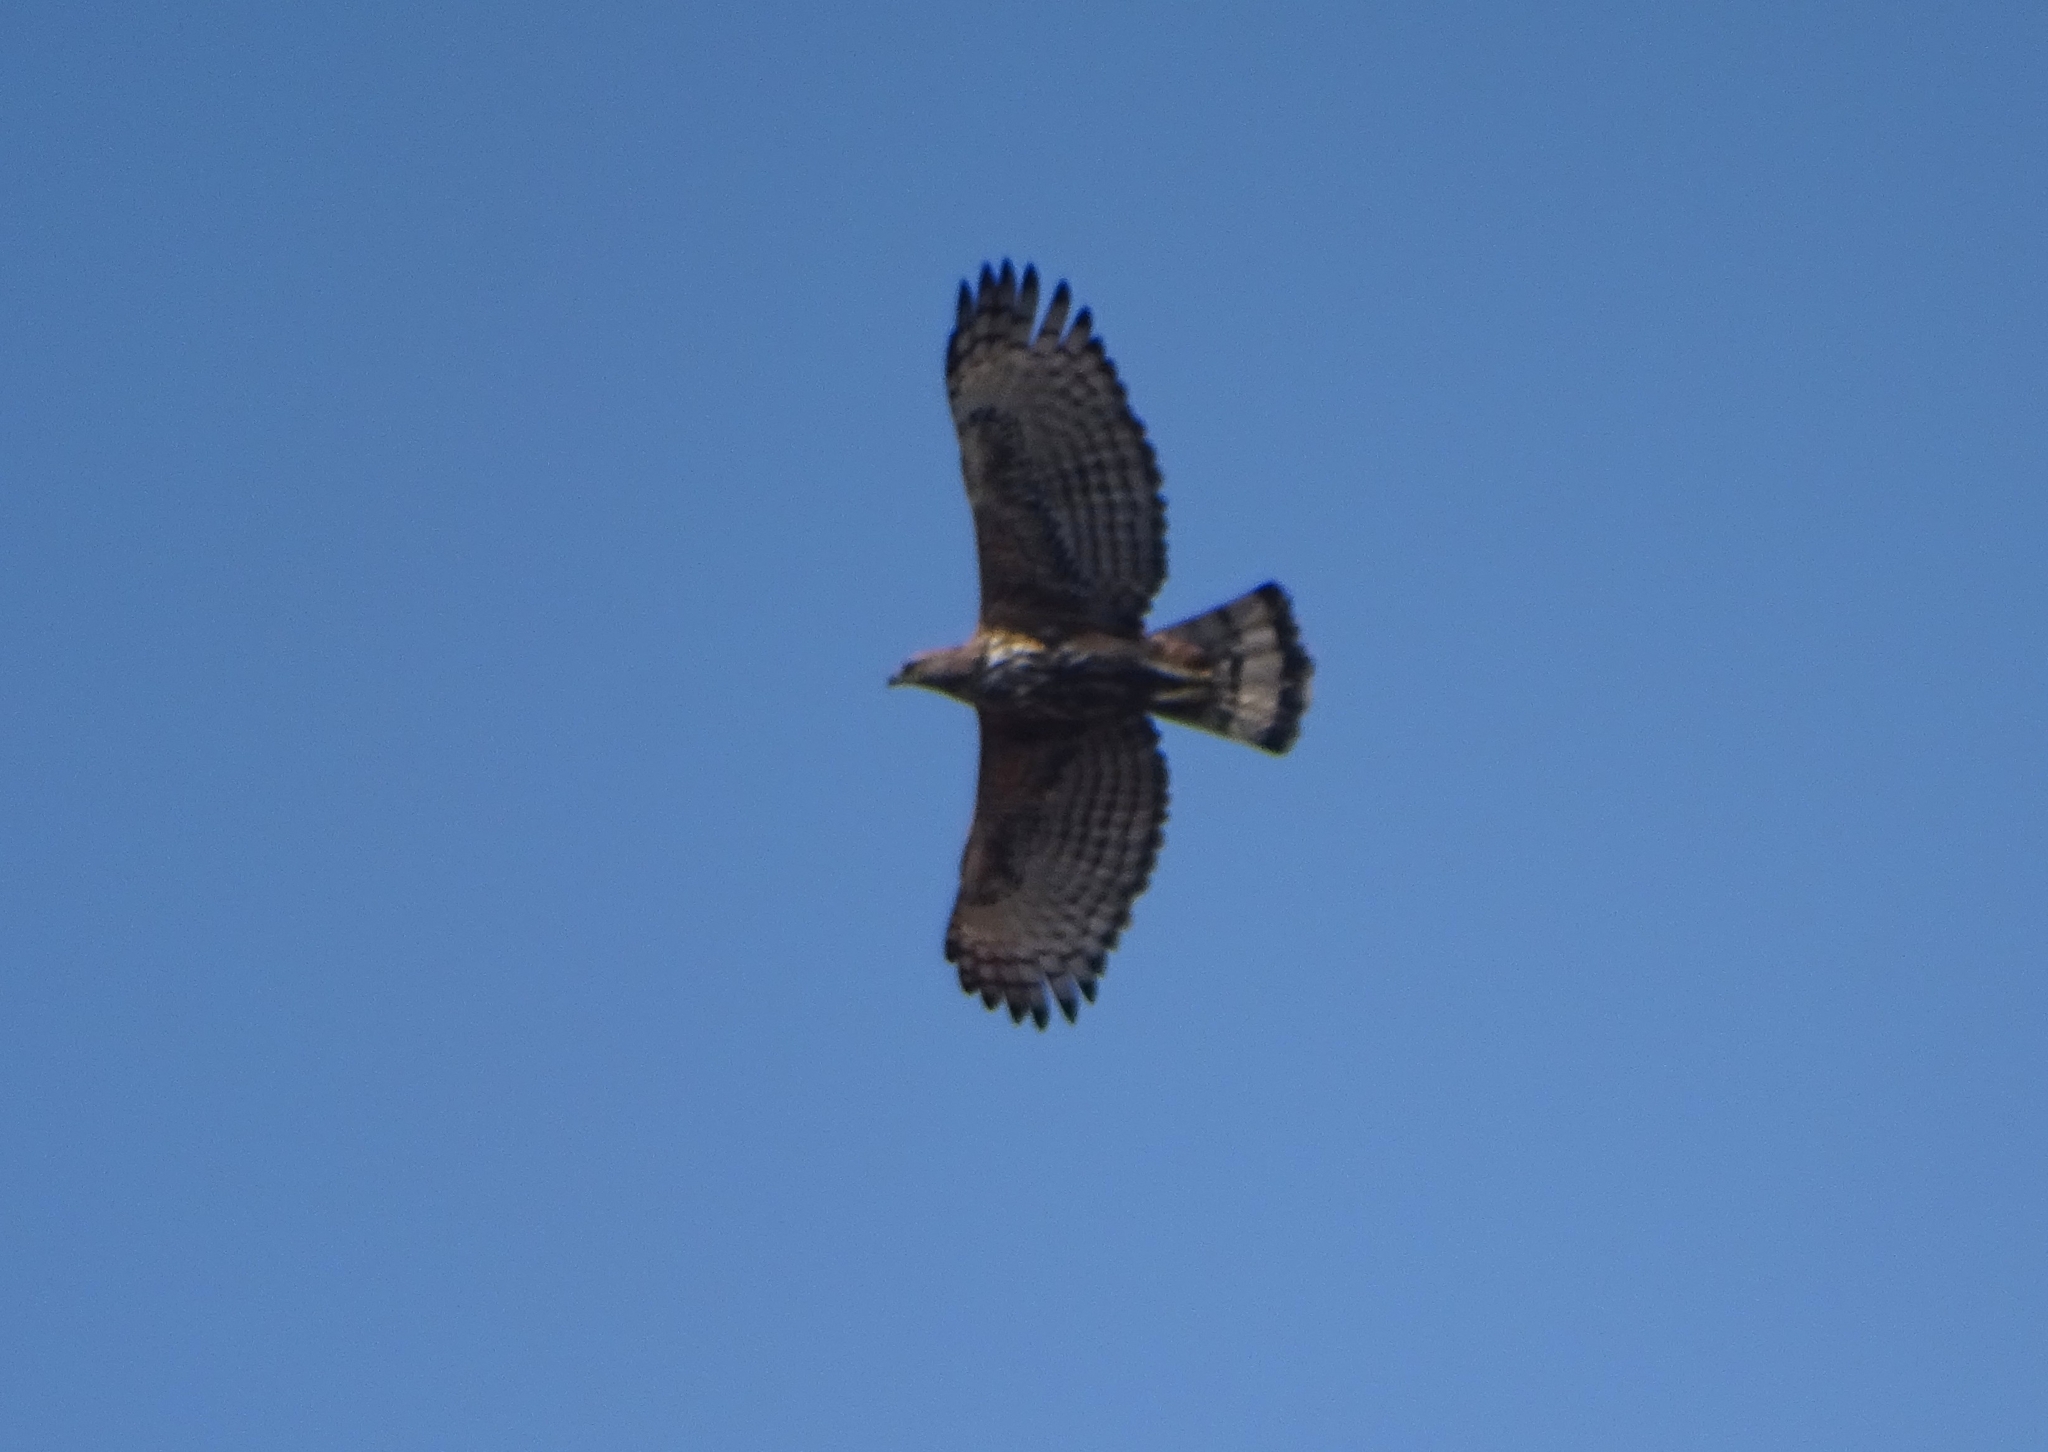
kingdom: Animalia
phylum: Chordata
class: Aves
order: Accipitriformes
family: Accipitridae
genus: Nisaetus
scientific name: Nisaetus cirrhatus
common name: Changeable hawk-eagle
